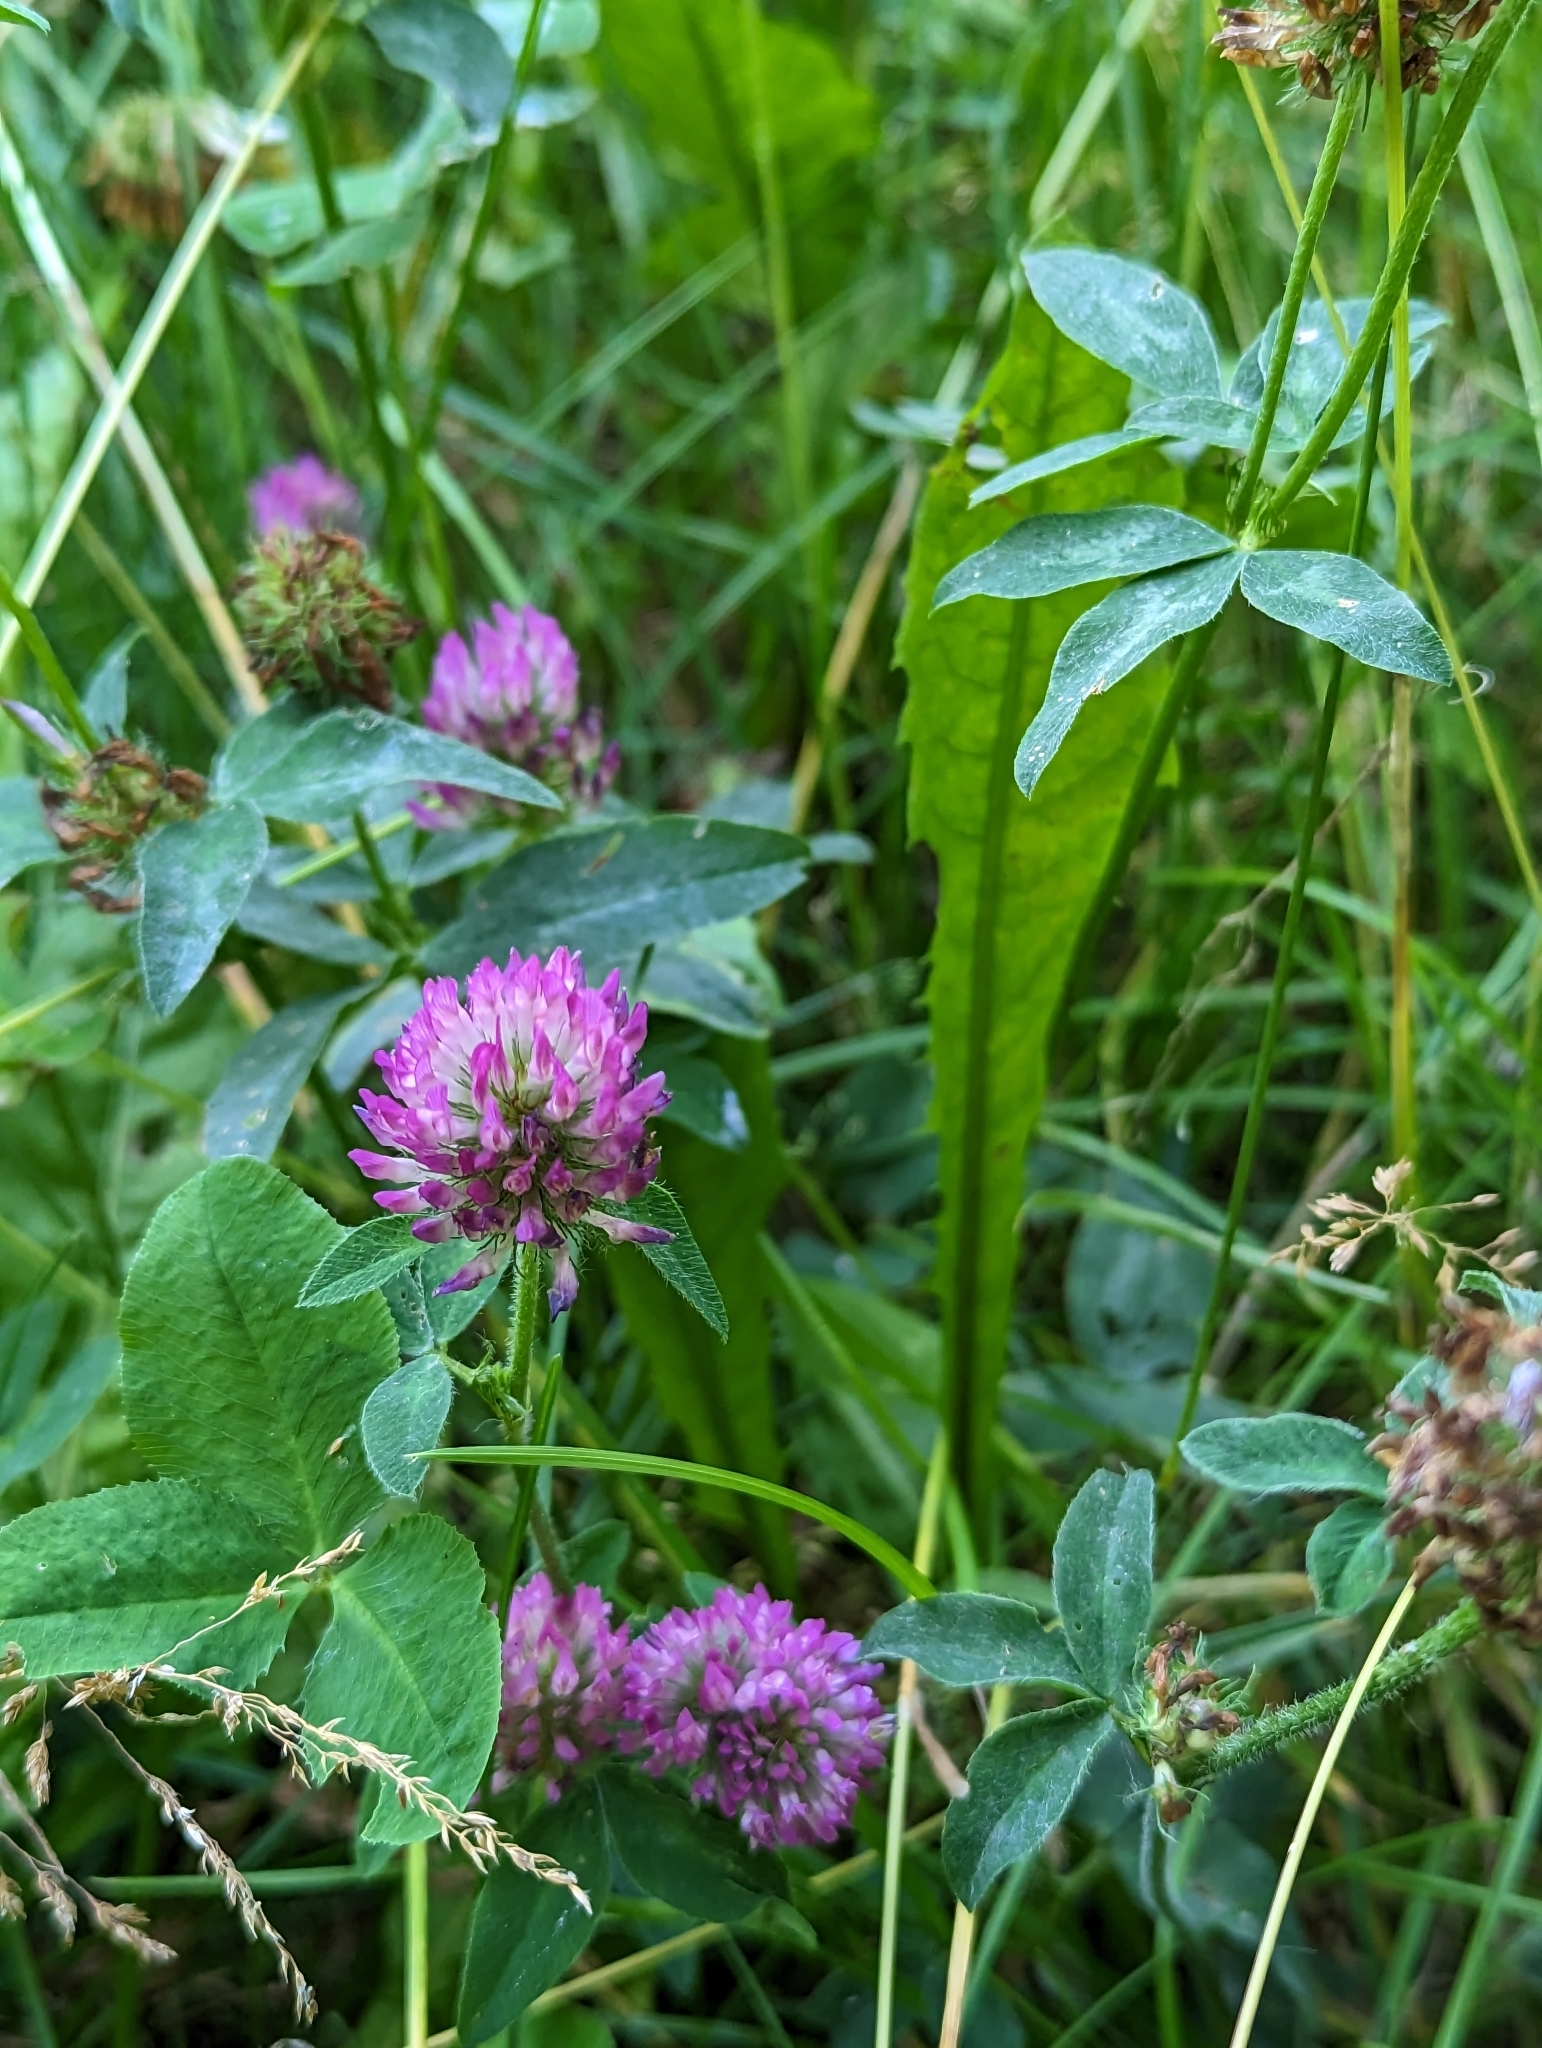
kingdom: Plantae
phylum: Tracheophyta
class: Magnoliopsida
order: Fabales
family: Fabaceae
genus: Trifolium
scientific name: Trifolium pratense
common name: Red clover
